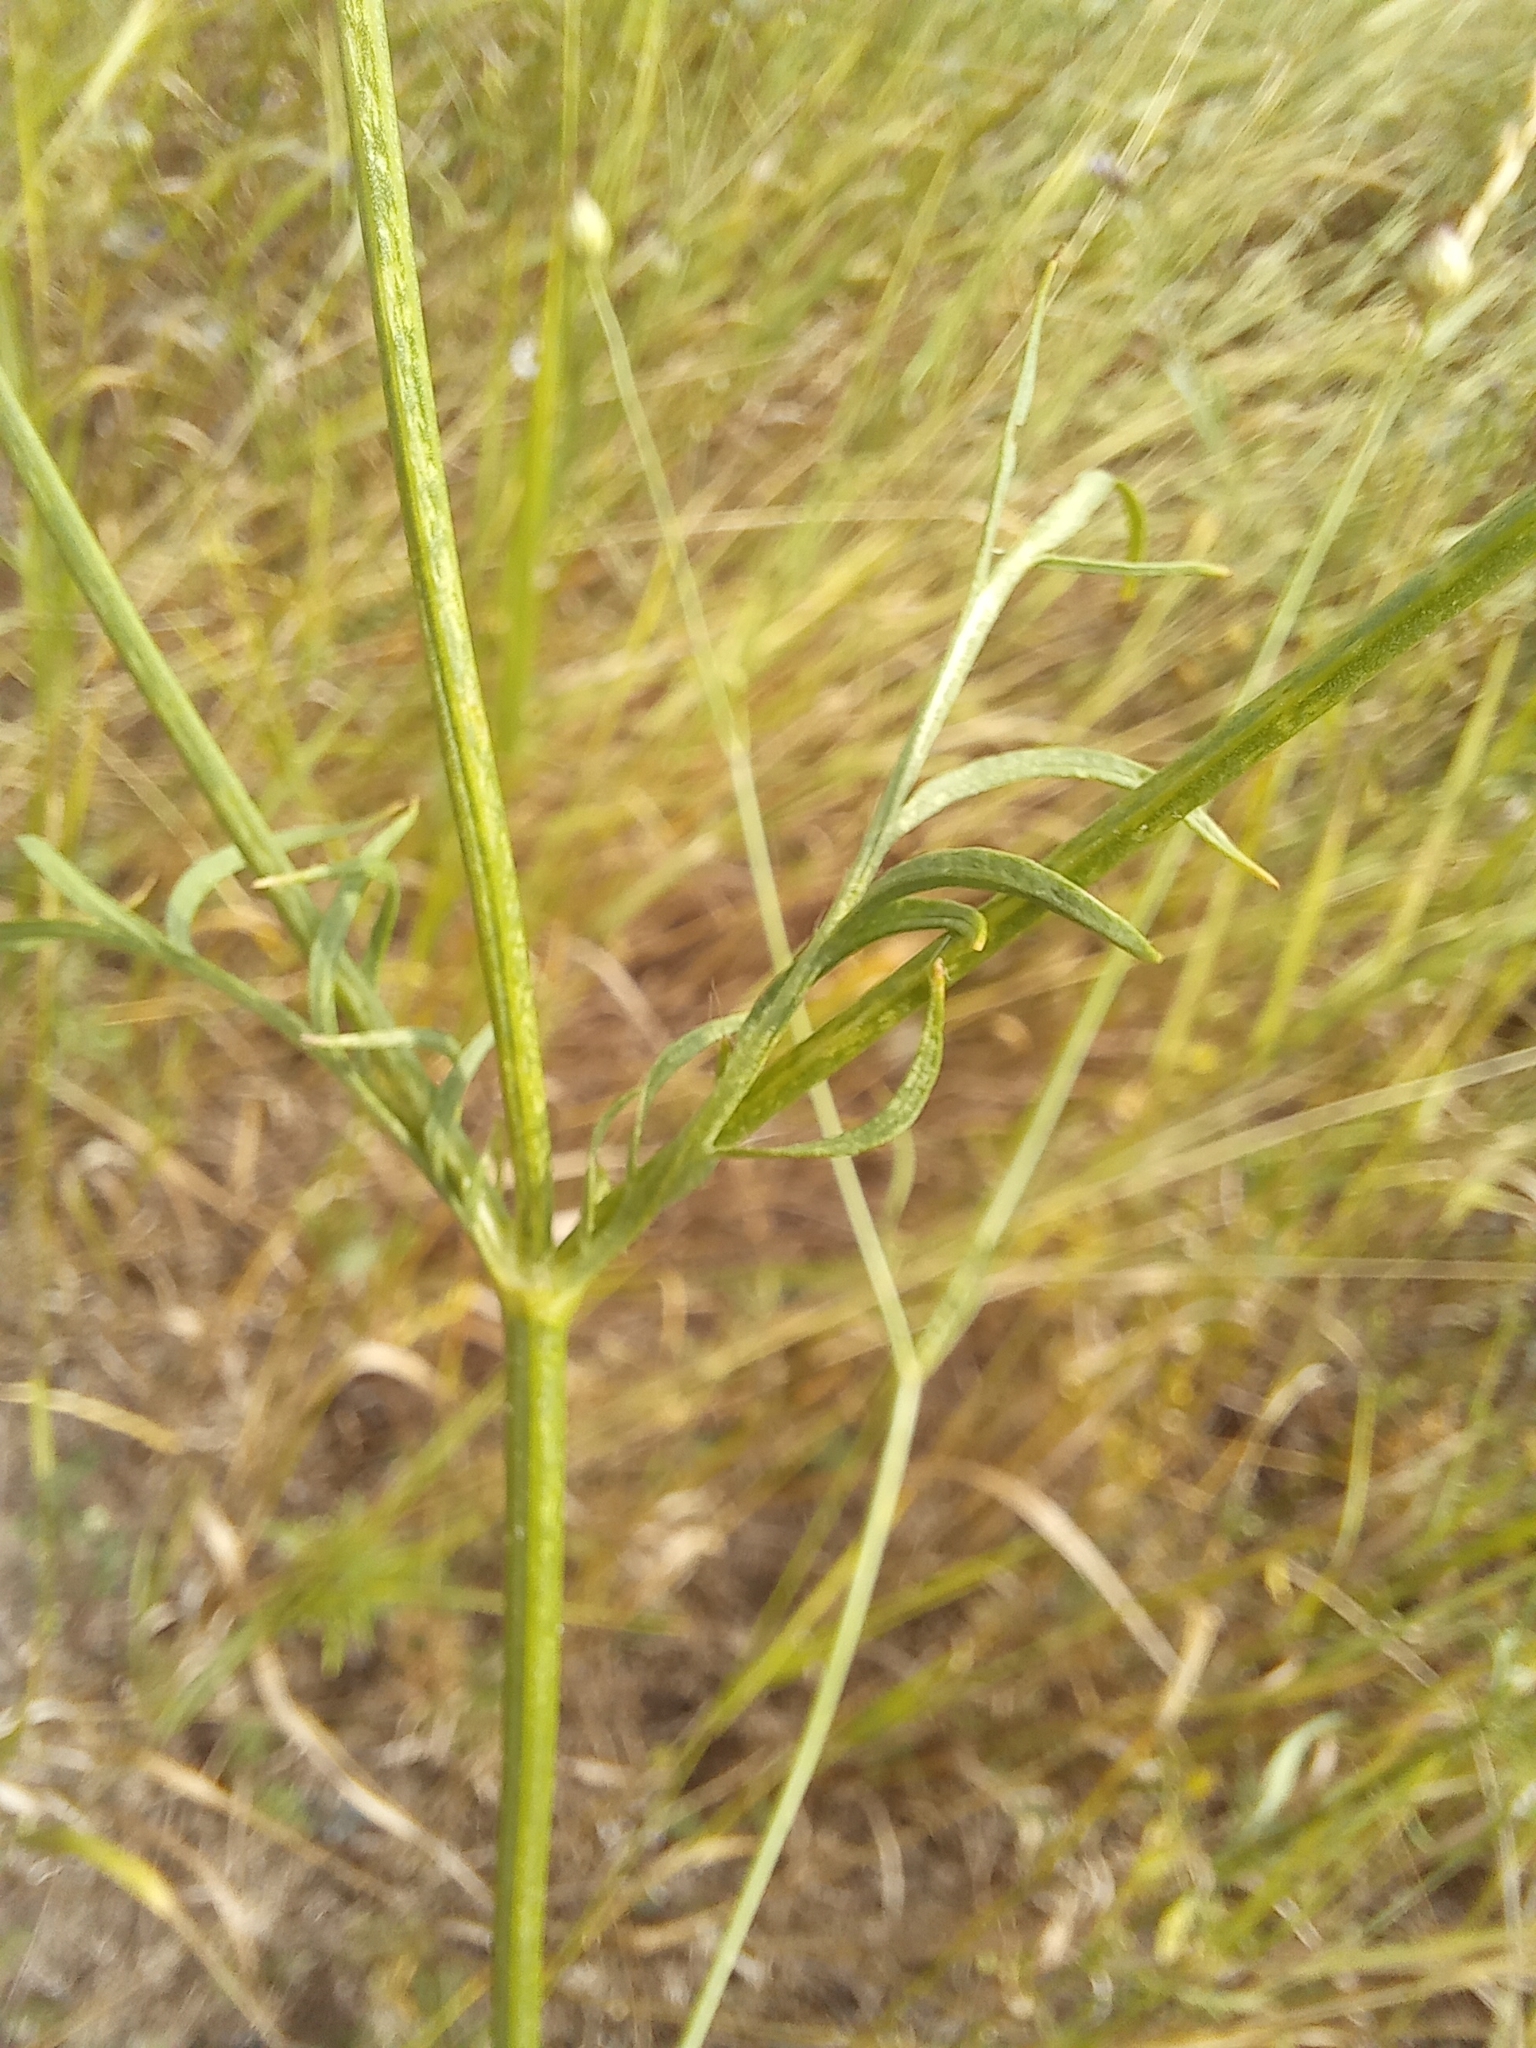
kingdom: Plantae
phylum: Tracheophyta
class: Magnoliopsida
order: Dipsacales
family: Caprifoliaceae
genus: Cephalaria
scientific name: Cephalaria transsylvanica
